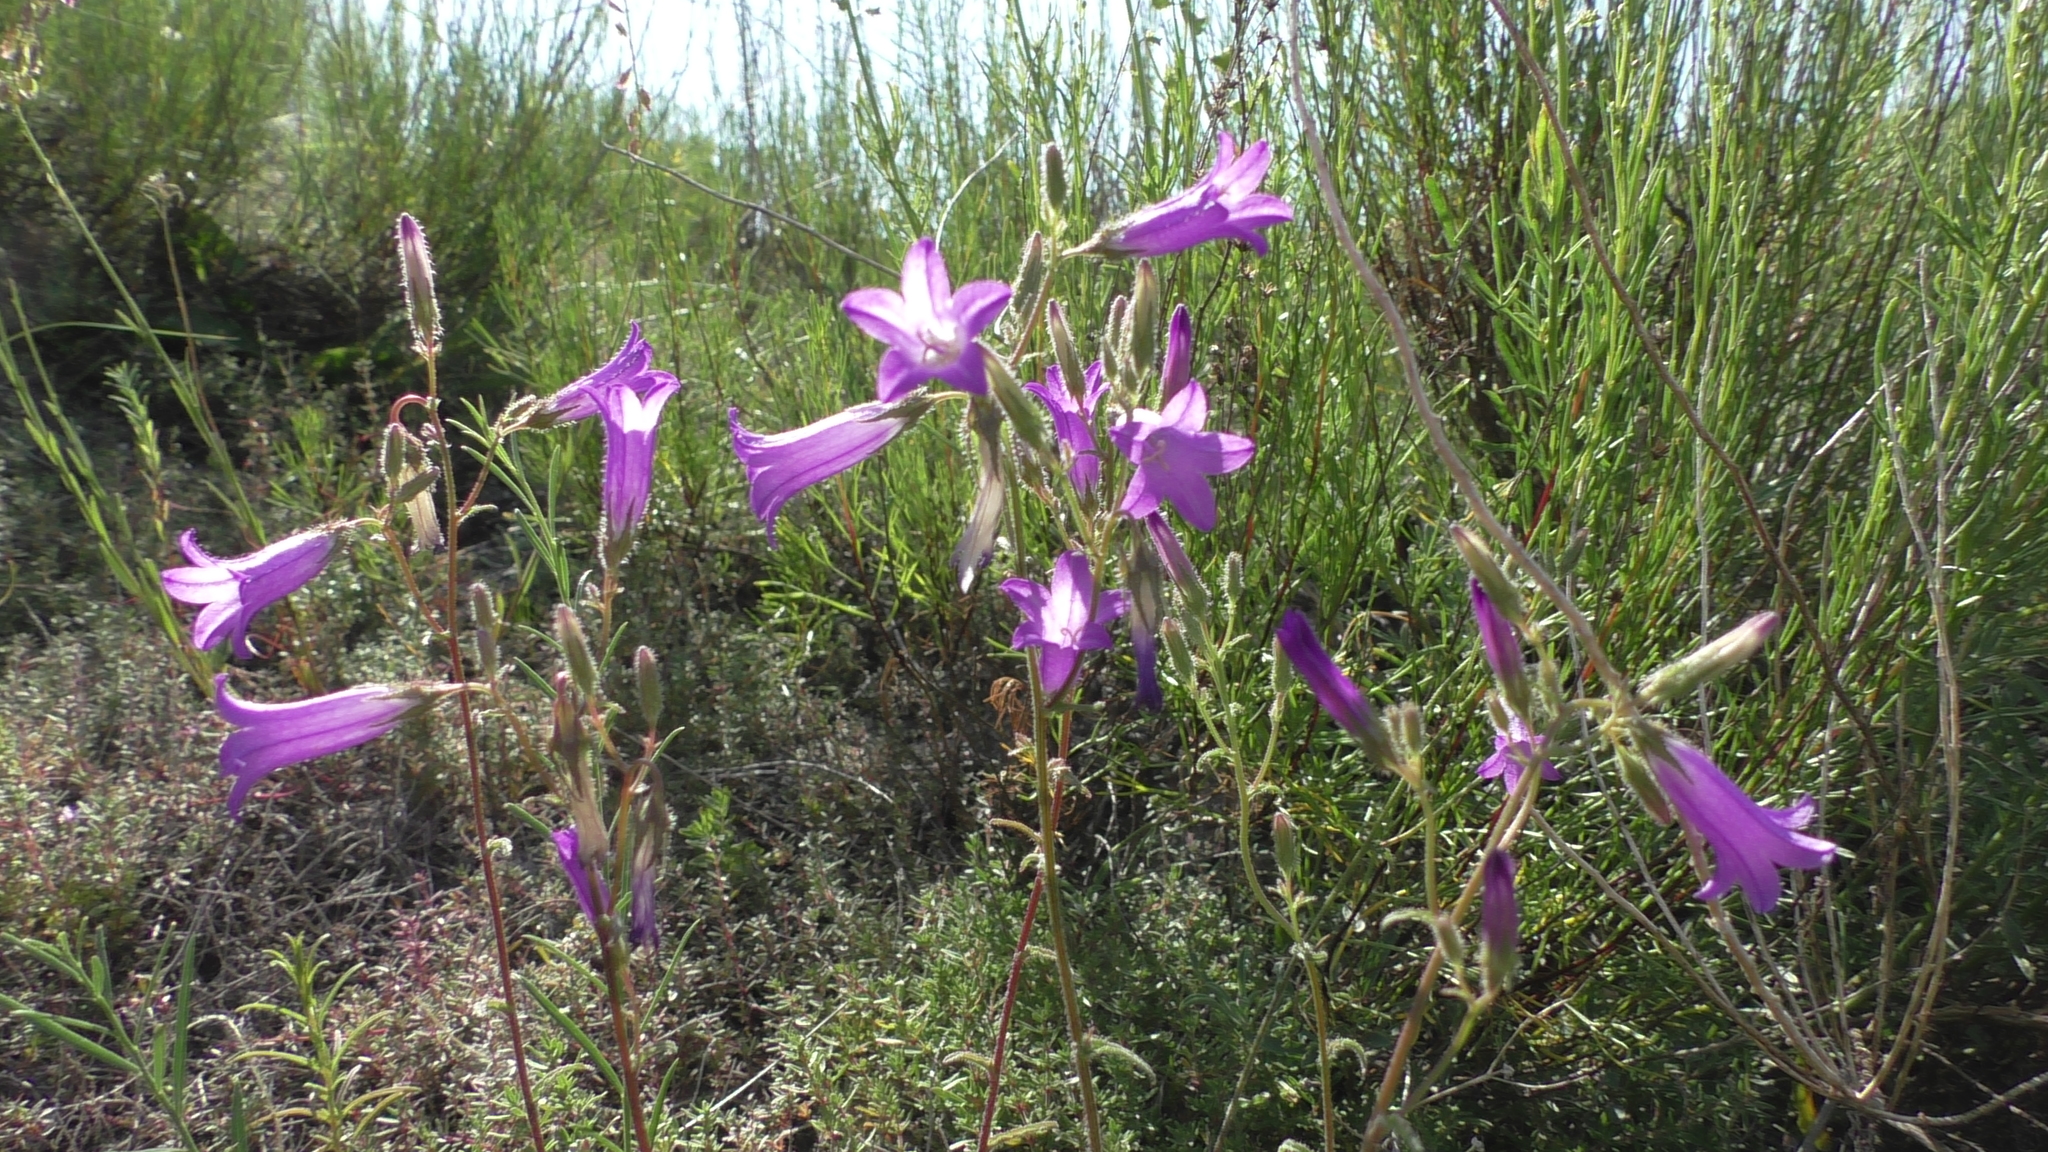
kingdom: Plantae
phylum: Tracheophyta
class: Magnoliopsida
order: Asterales
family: Campanulaceae
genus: Campanula
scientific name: Campanula sibirica
